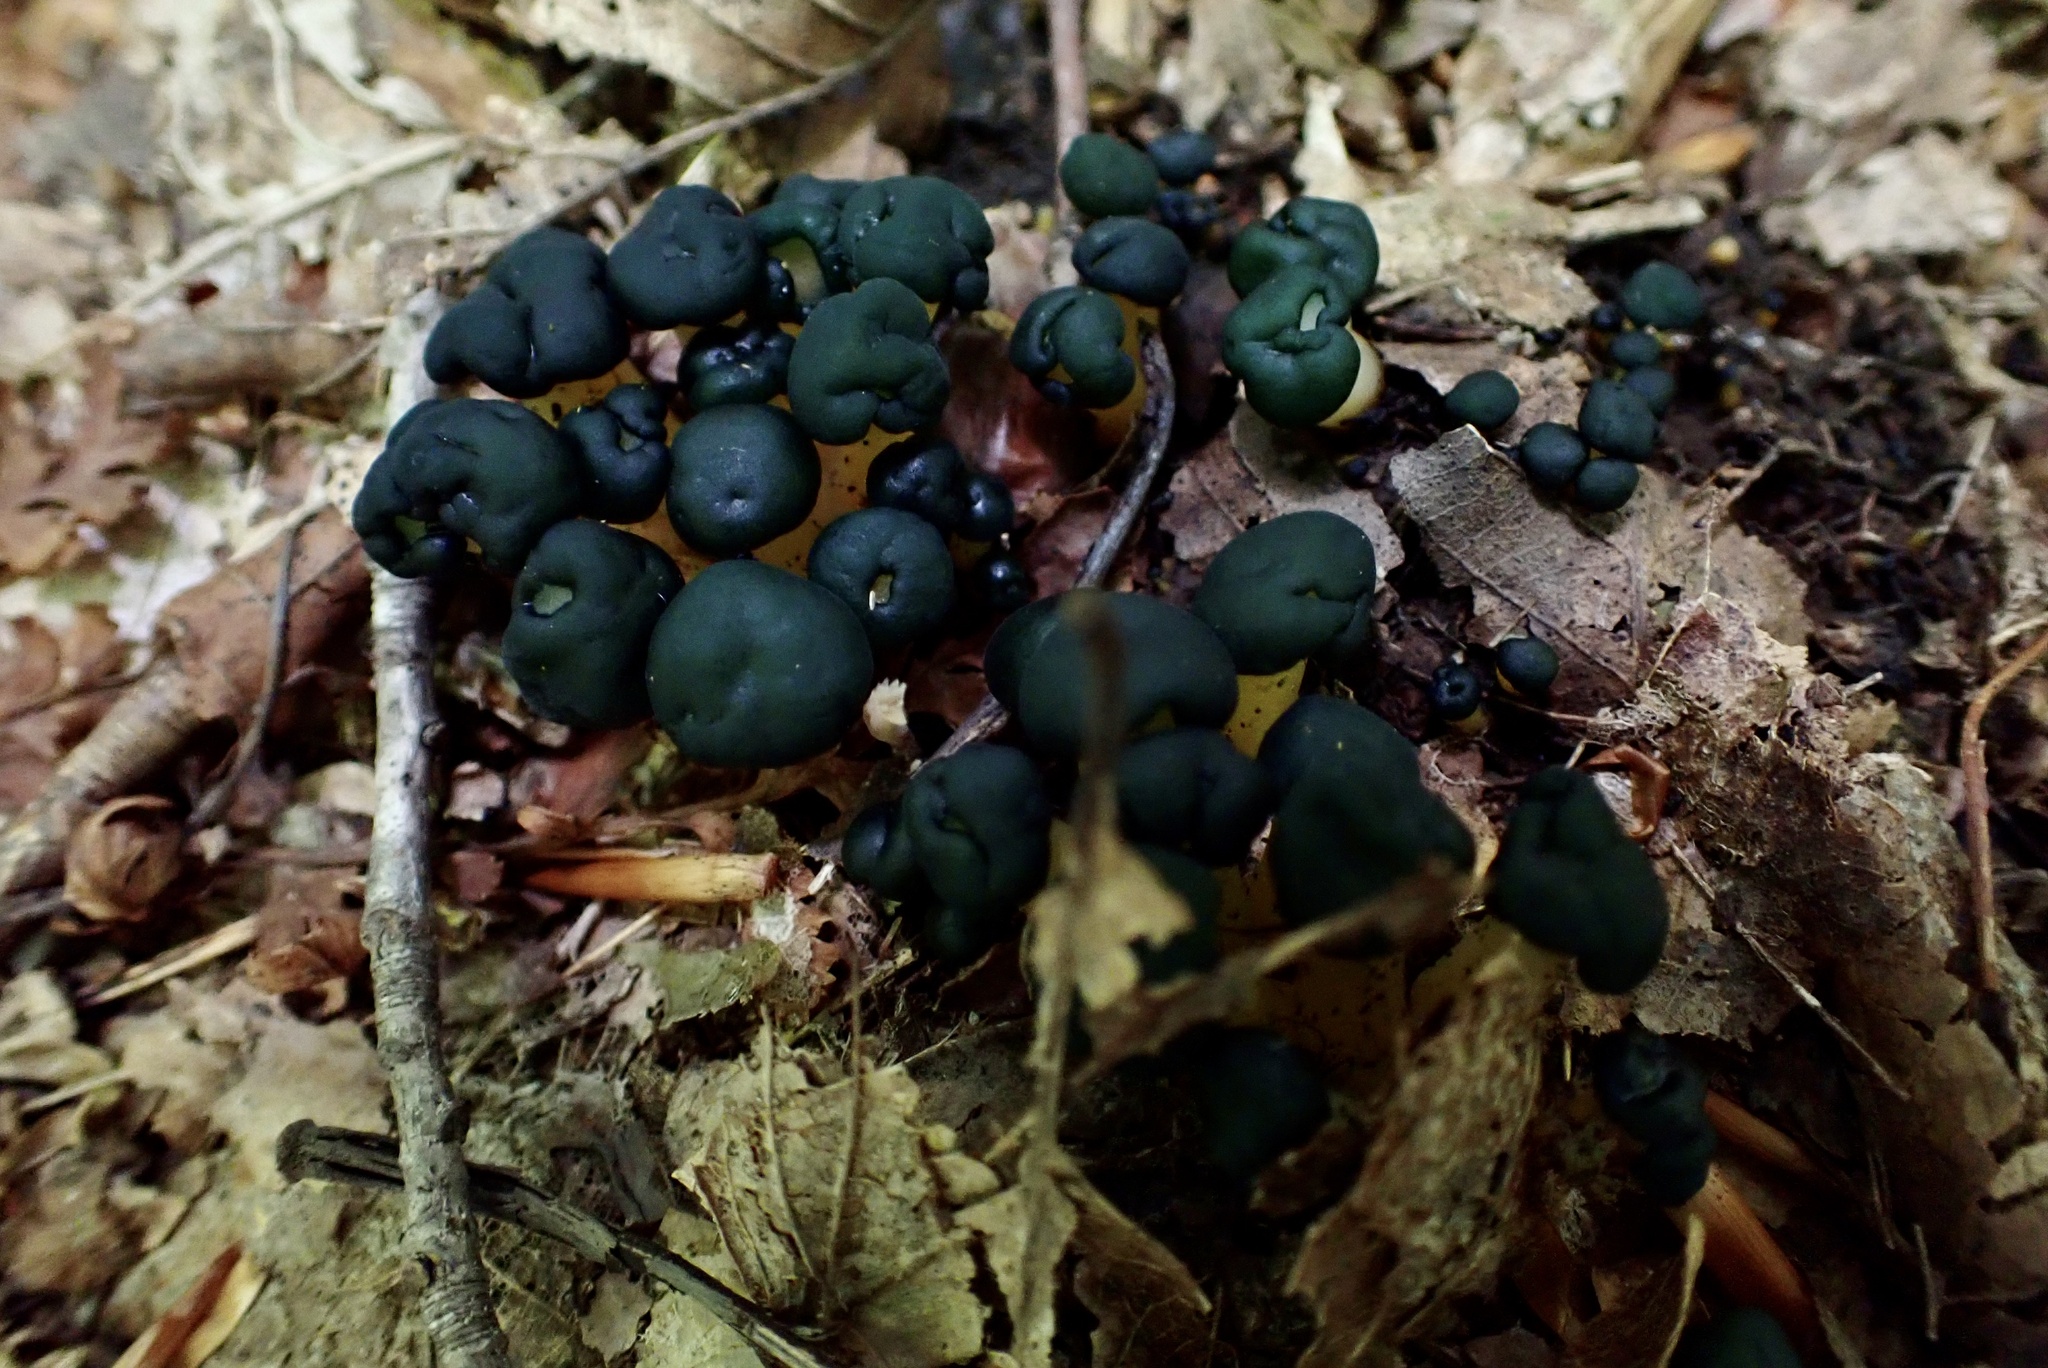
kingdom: Fungi
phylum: Ascomycota
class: Leotiomycetes
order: Leotiales
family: Leotiaceae
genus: Leotia
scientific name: Leotia lubrica
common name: Jellybaby
